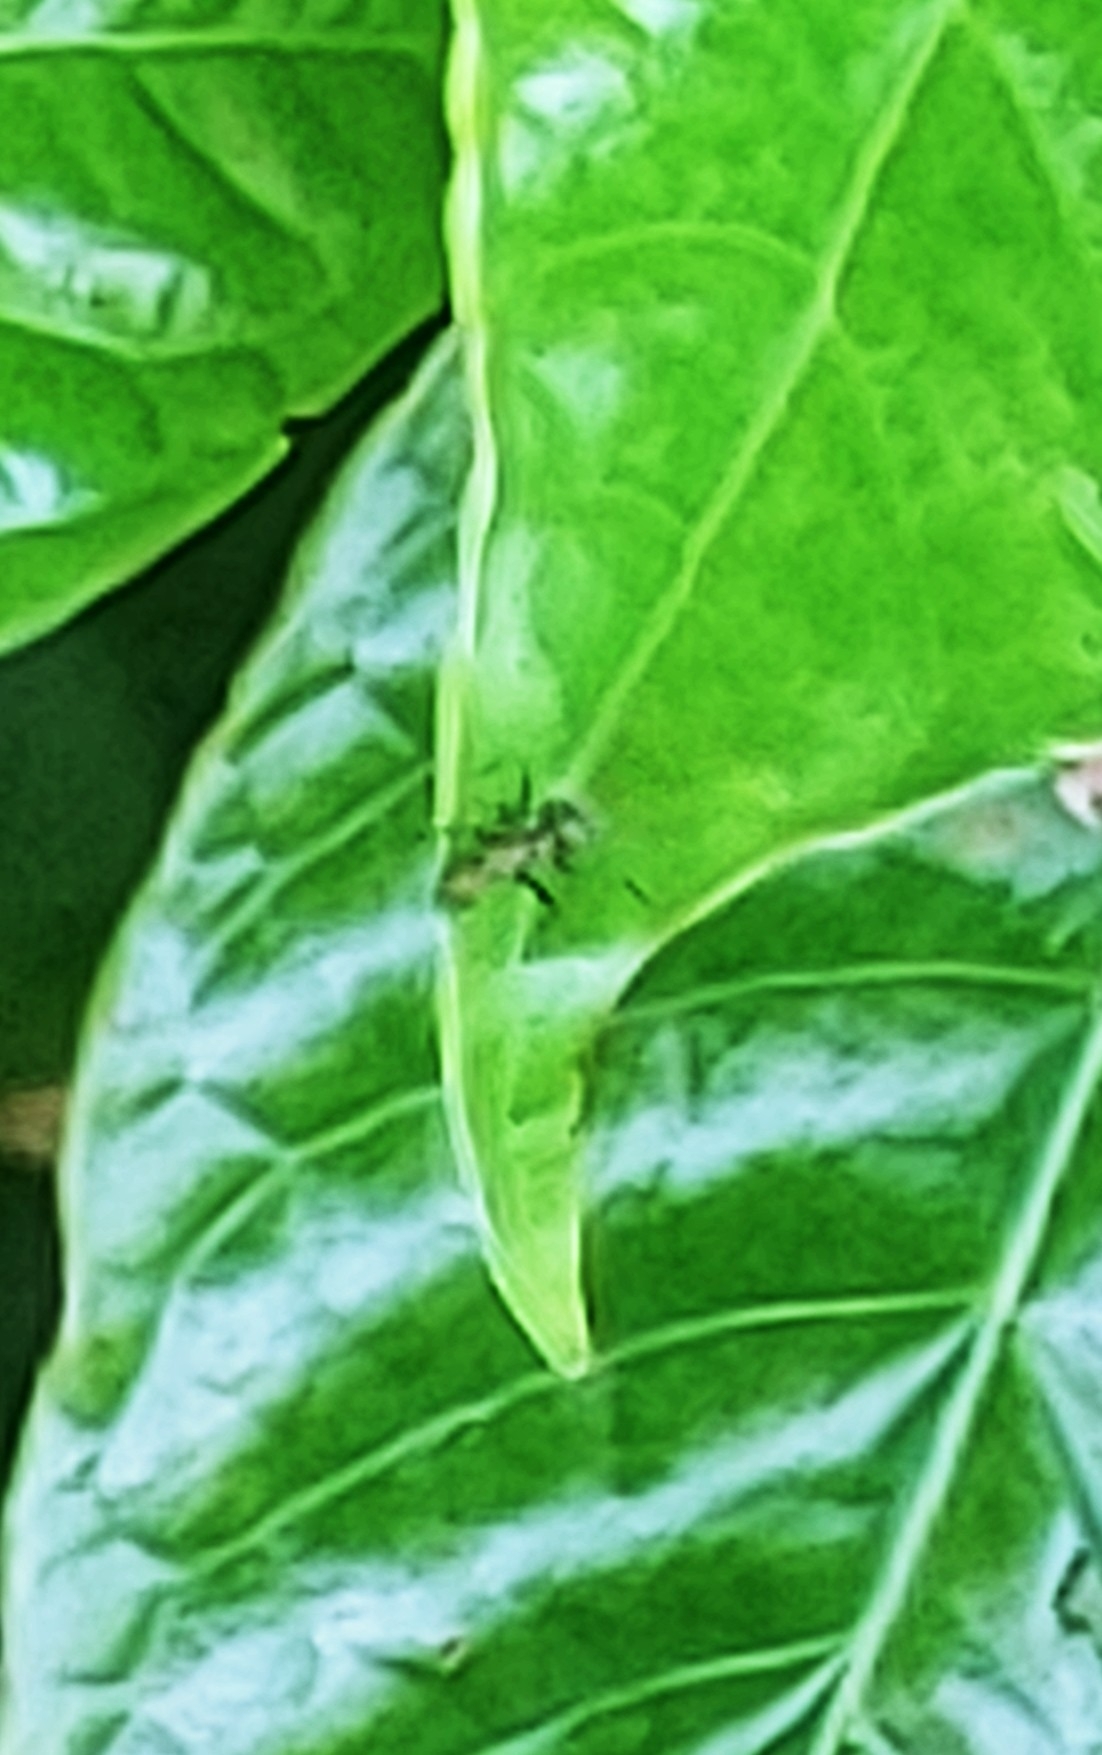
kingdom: Animalia
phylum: Arthropoda
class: Insecta
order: Hymenoptera
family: Formicidae
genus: Camponotus
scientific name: Camponotus planatus
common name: Compact carpenter ant
